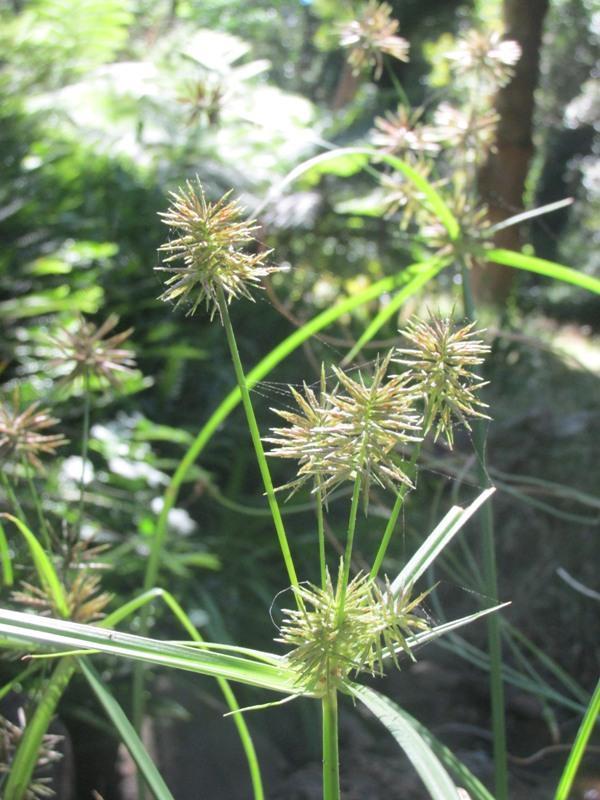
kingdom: Plantae
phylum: Tracheophyta
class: Liliopsida
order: Poales
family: Cyperaceae
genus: Cyperus
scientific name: Cyperus congestus
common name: Dense flat sedge
